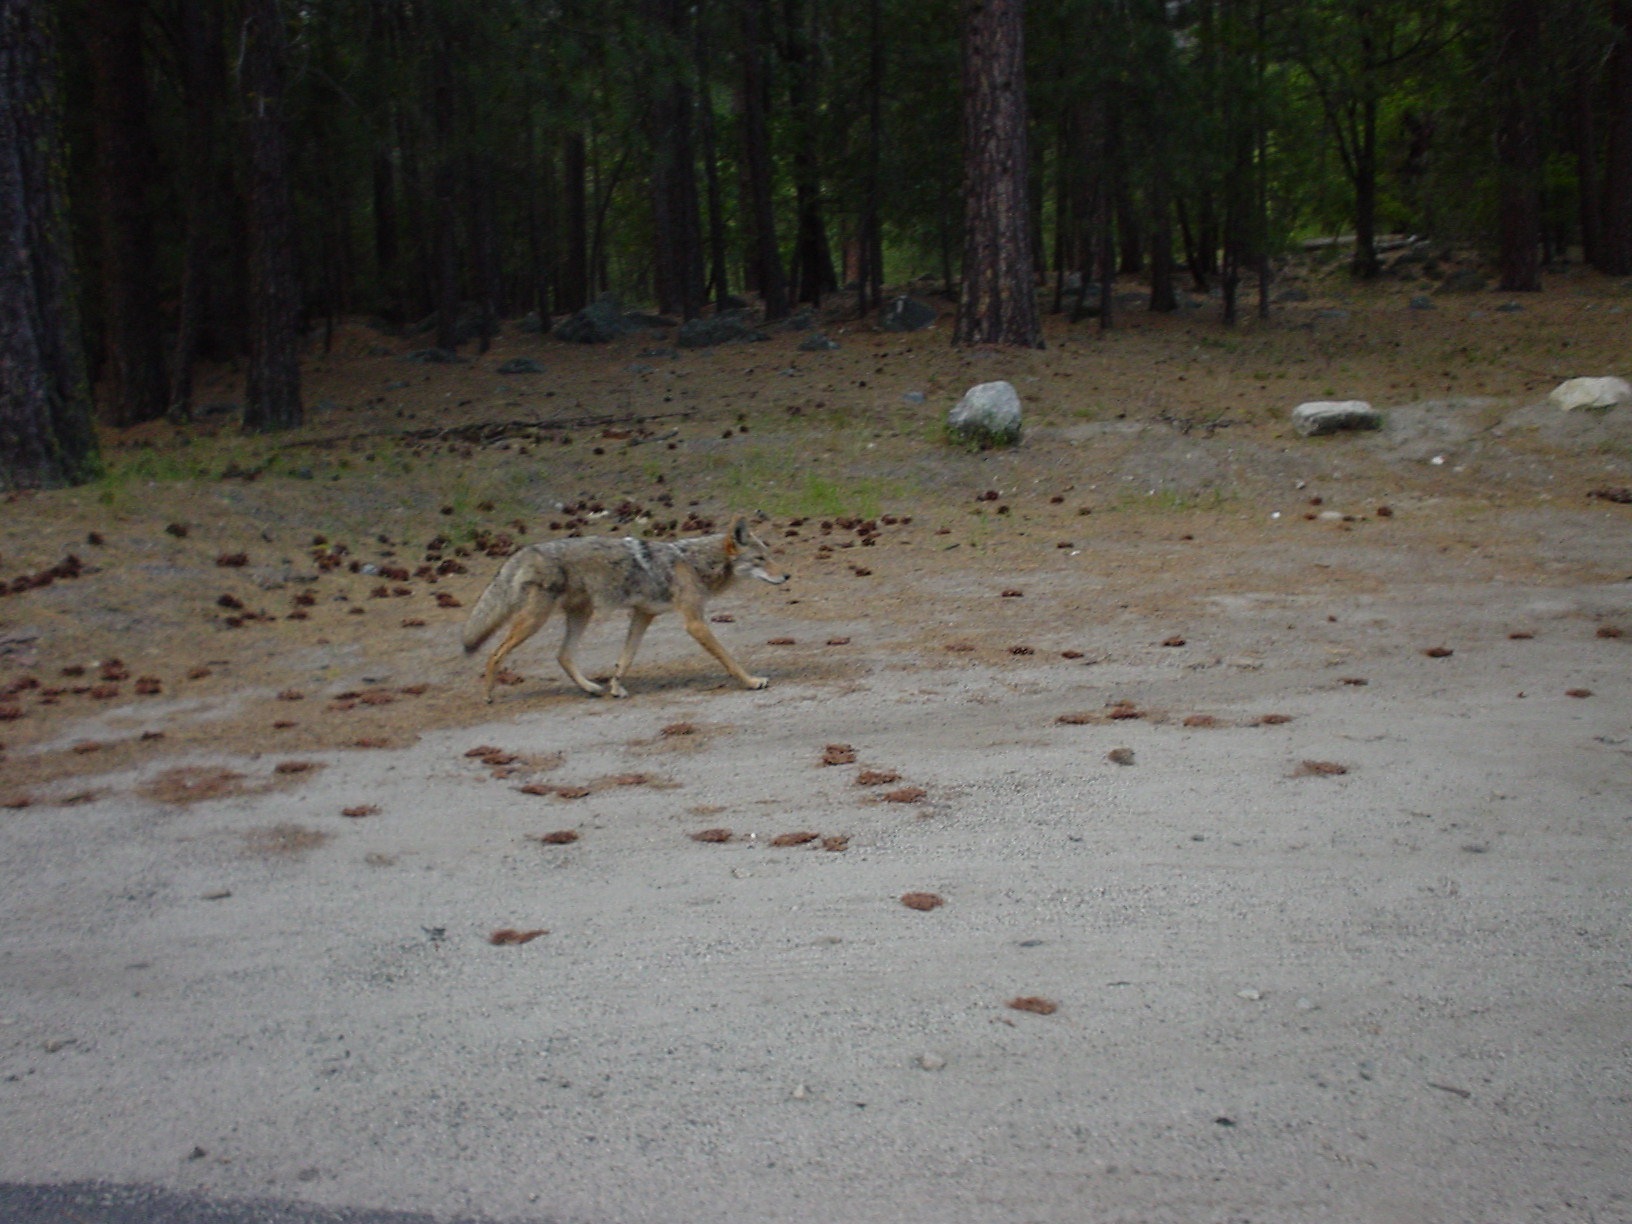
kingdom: Animalia
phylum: Chordata
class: Mammalia
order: Carnivora
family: Canidae
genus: Canis
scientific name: Canis latrans
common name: Coyote
